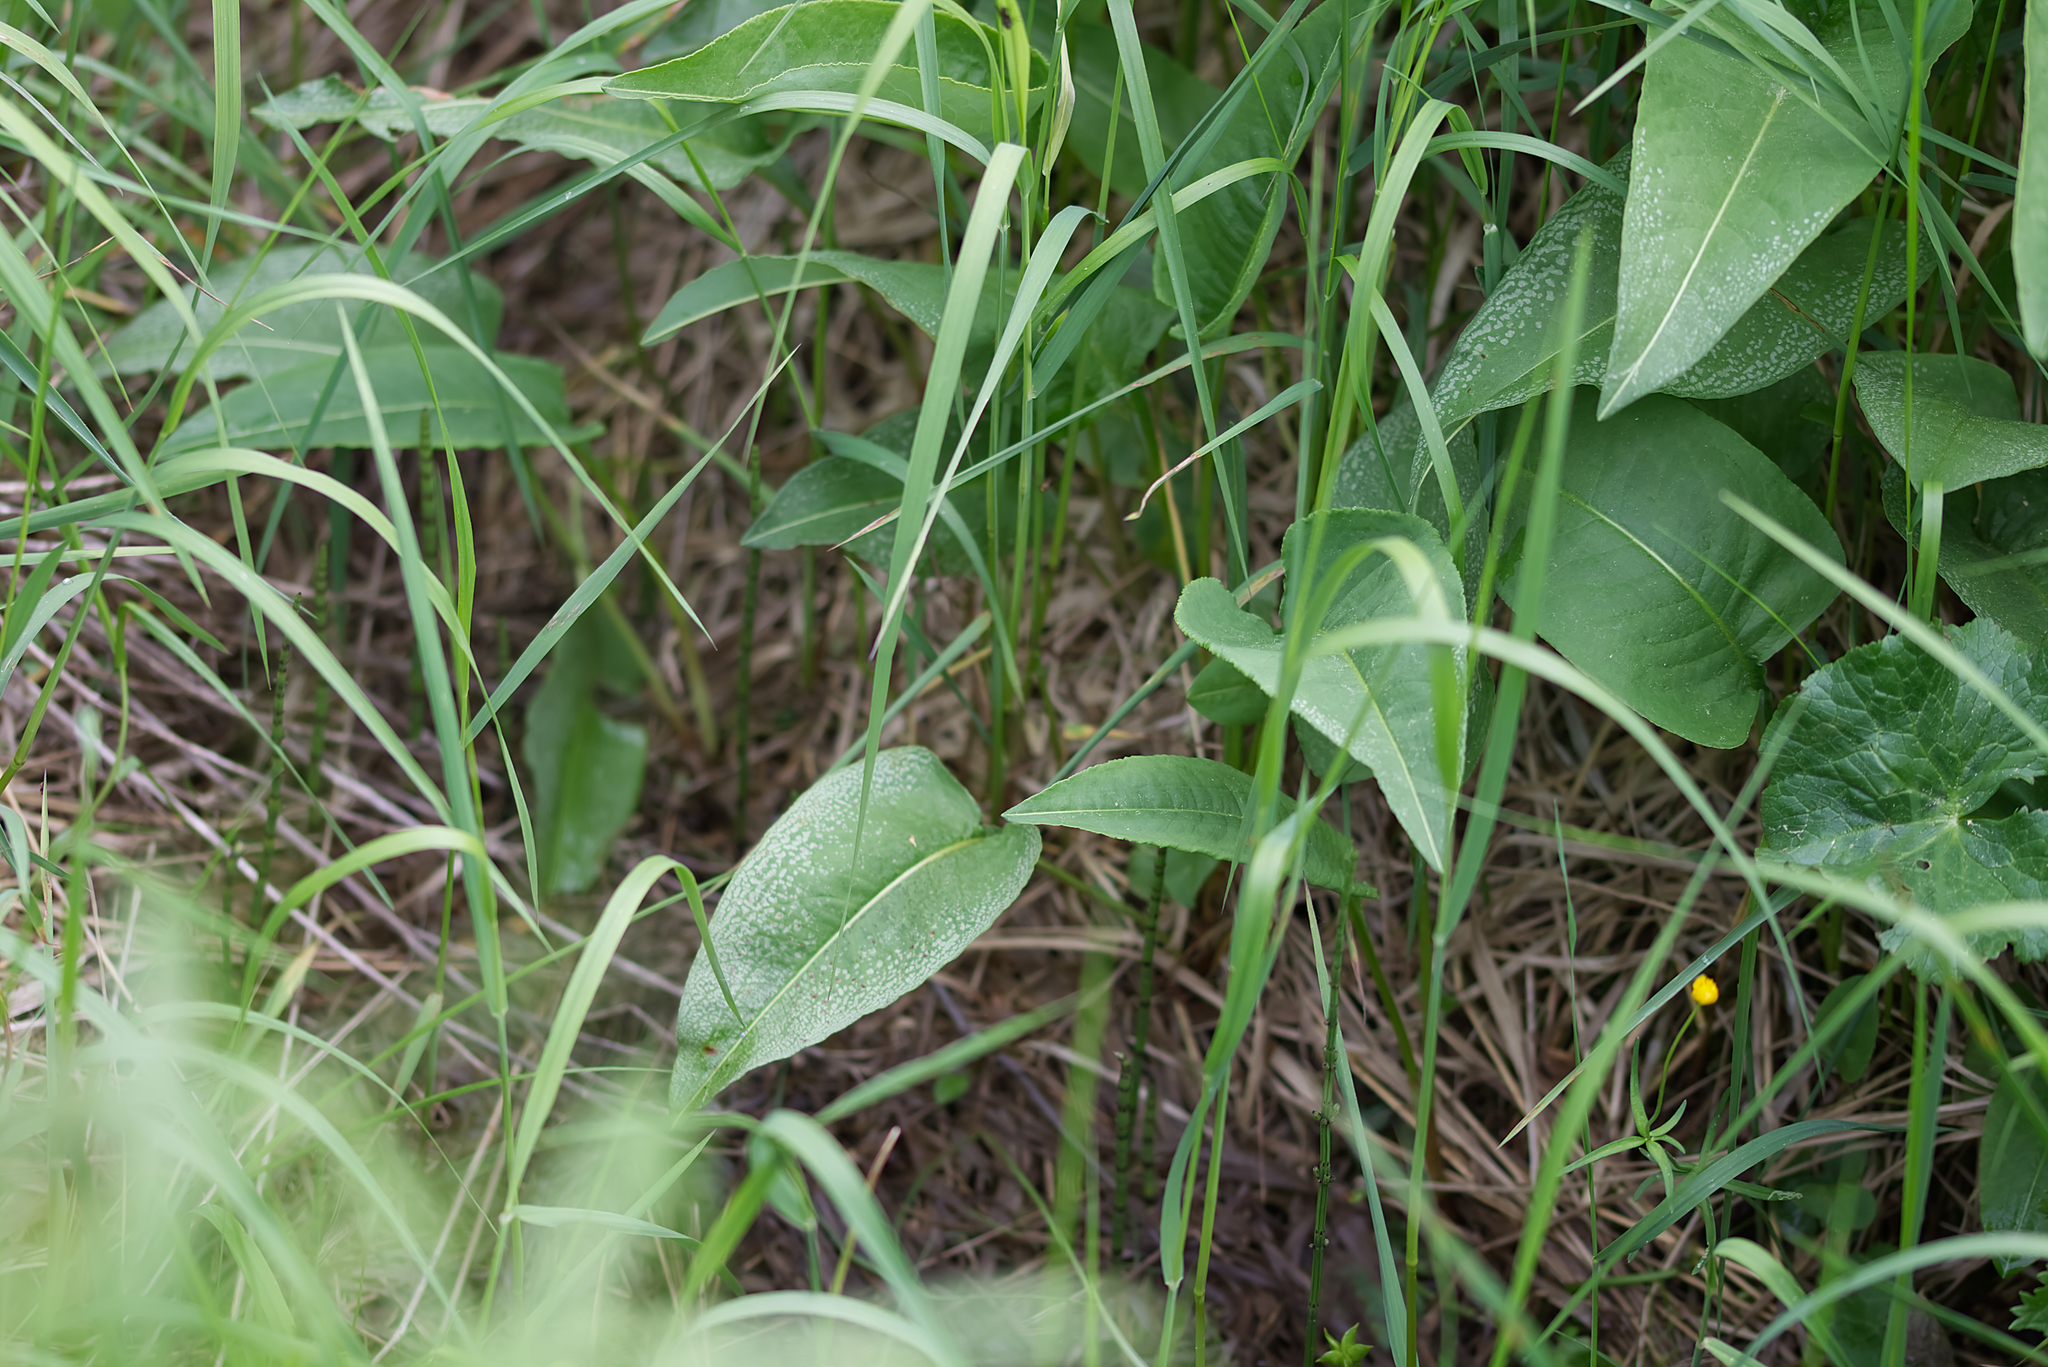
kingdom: Plantae
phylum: Tracheophyta
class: Magnoliopsida
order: Caryophyllales
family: Polygonaceae
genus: Bistorta
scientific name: Bistorta officinalis
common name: Common bistort
